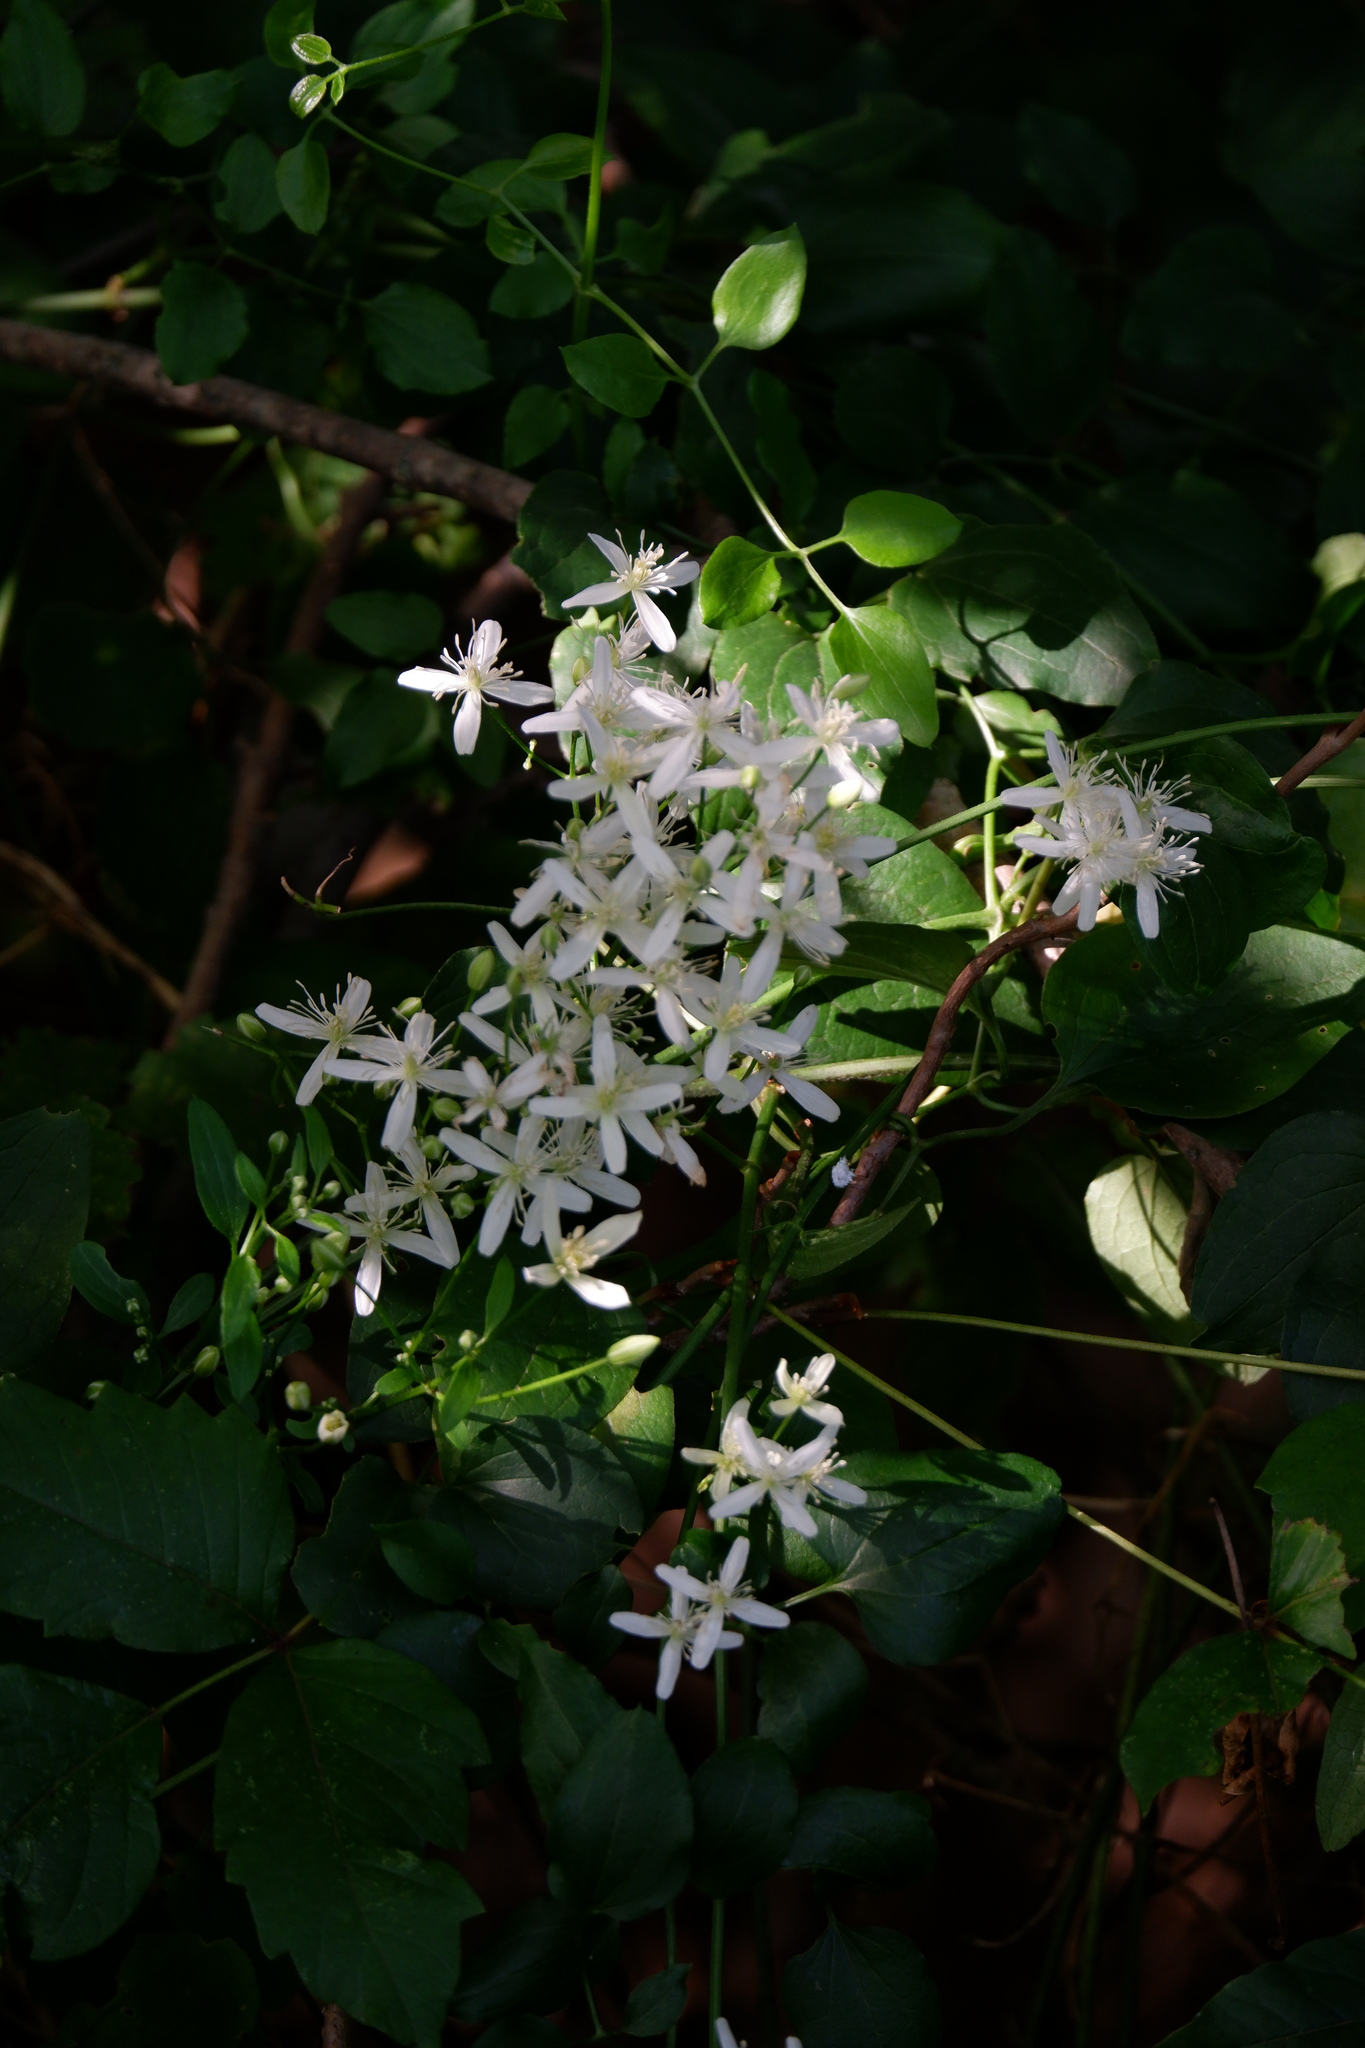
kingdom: Plantae
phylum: Tracheophyta
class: Magnoliopsida
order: Ranunculales
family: Ranunculaceae
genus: Clematis
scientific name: Clematis terniflora
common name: Sweet autumn clematis
